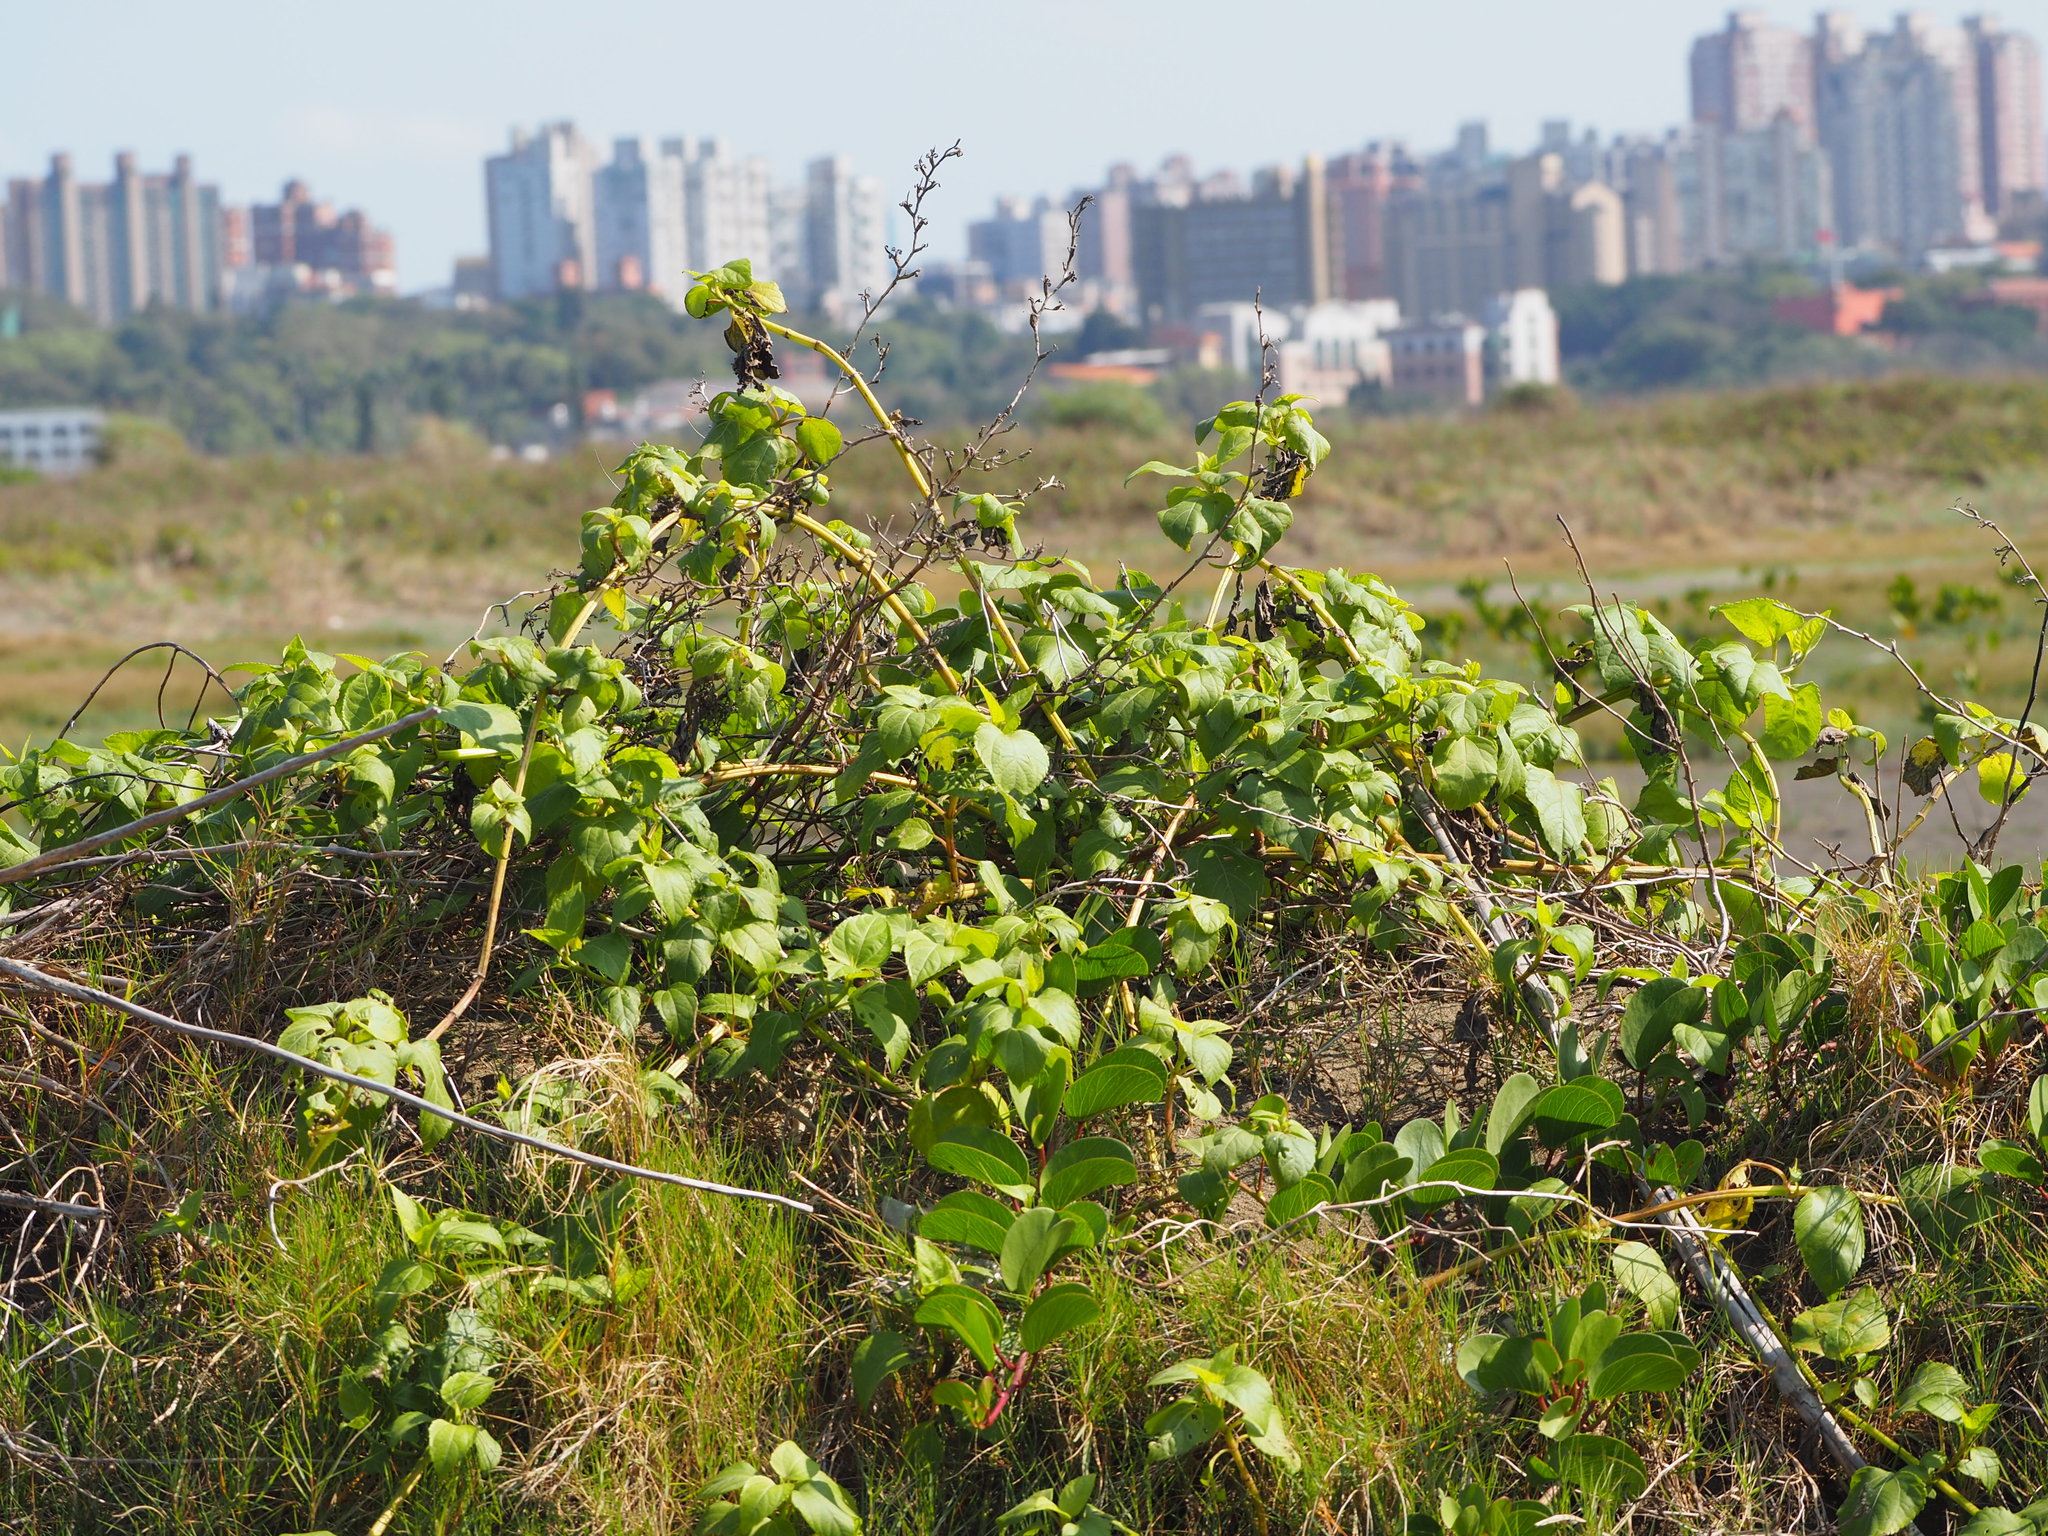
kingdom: Plantae
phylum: Tracheophyta
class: Magnoliopsida
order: Asterales
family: Asteraceae
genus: Wollastonia
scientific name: Wollastonia biflora
